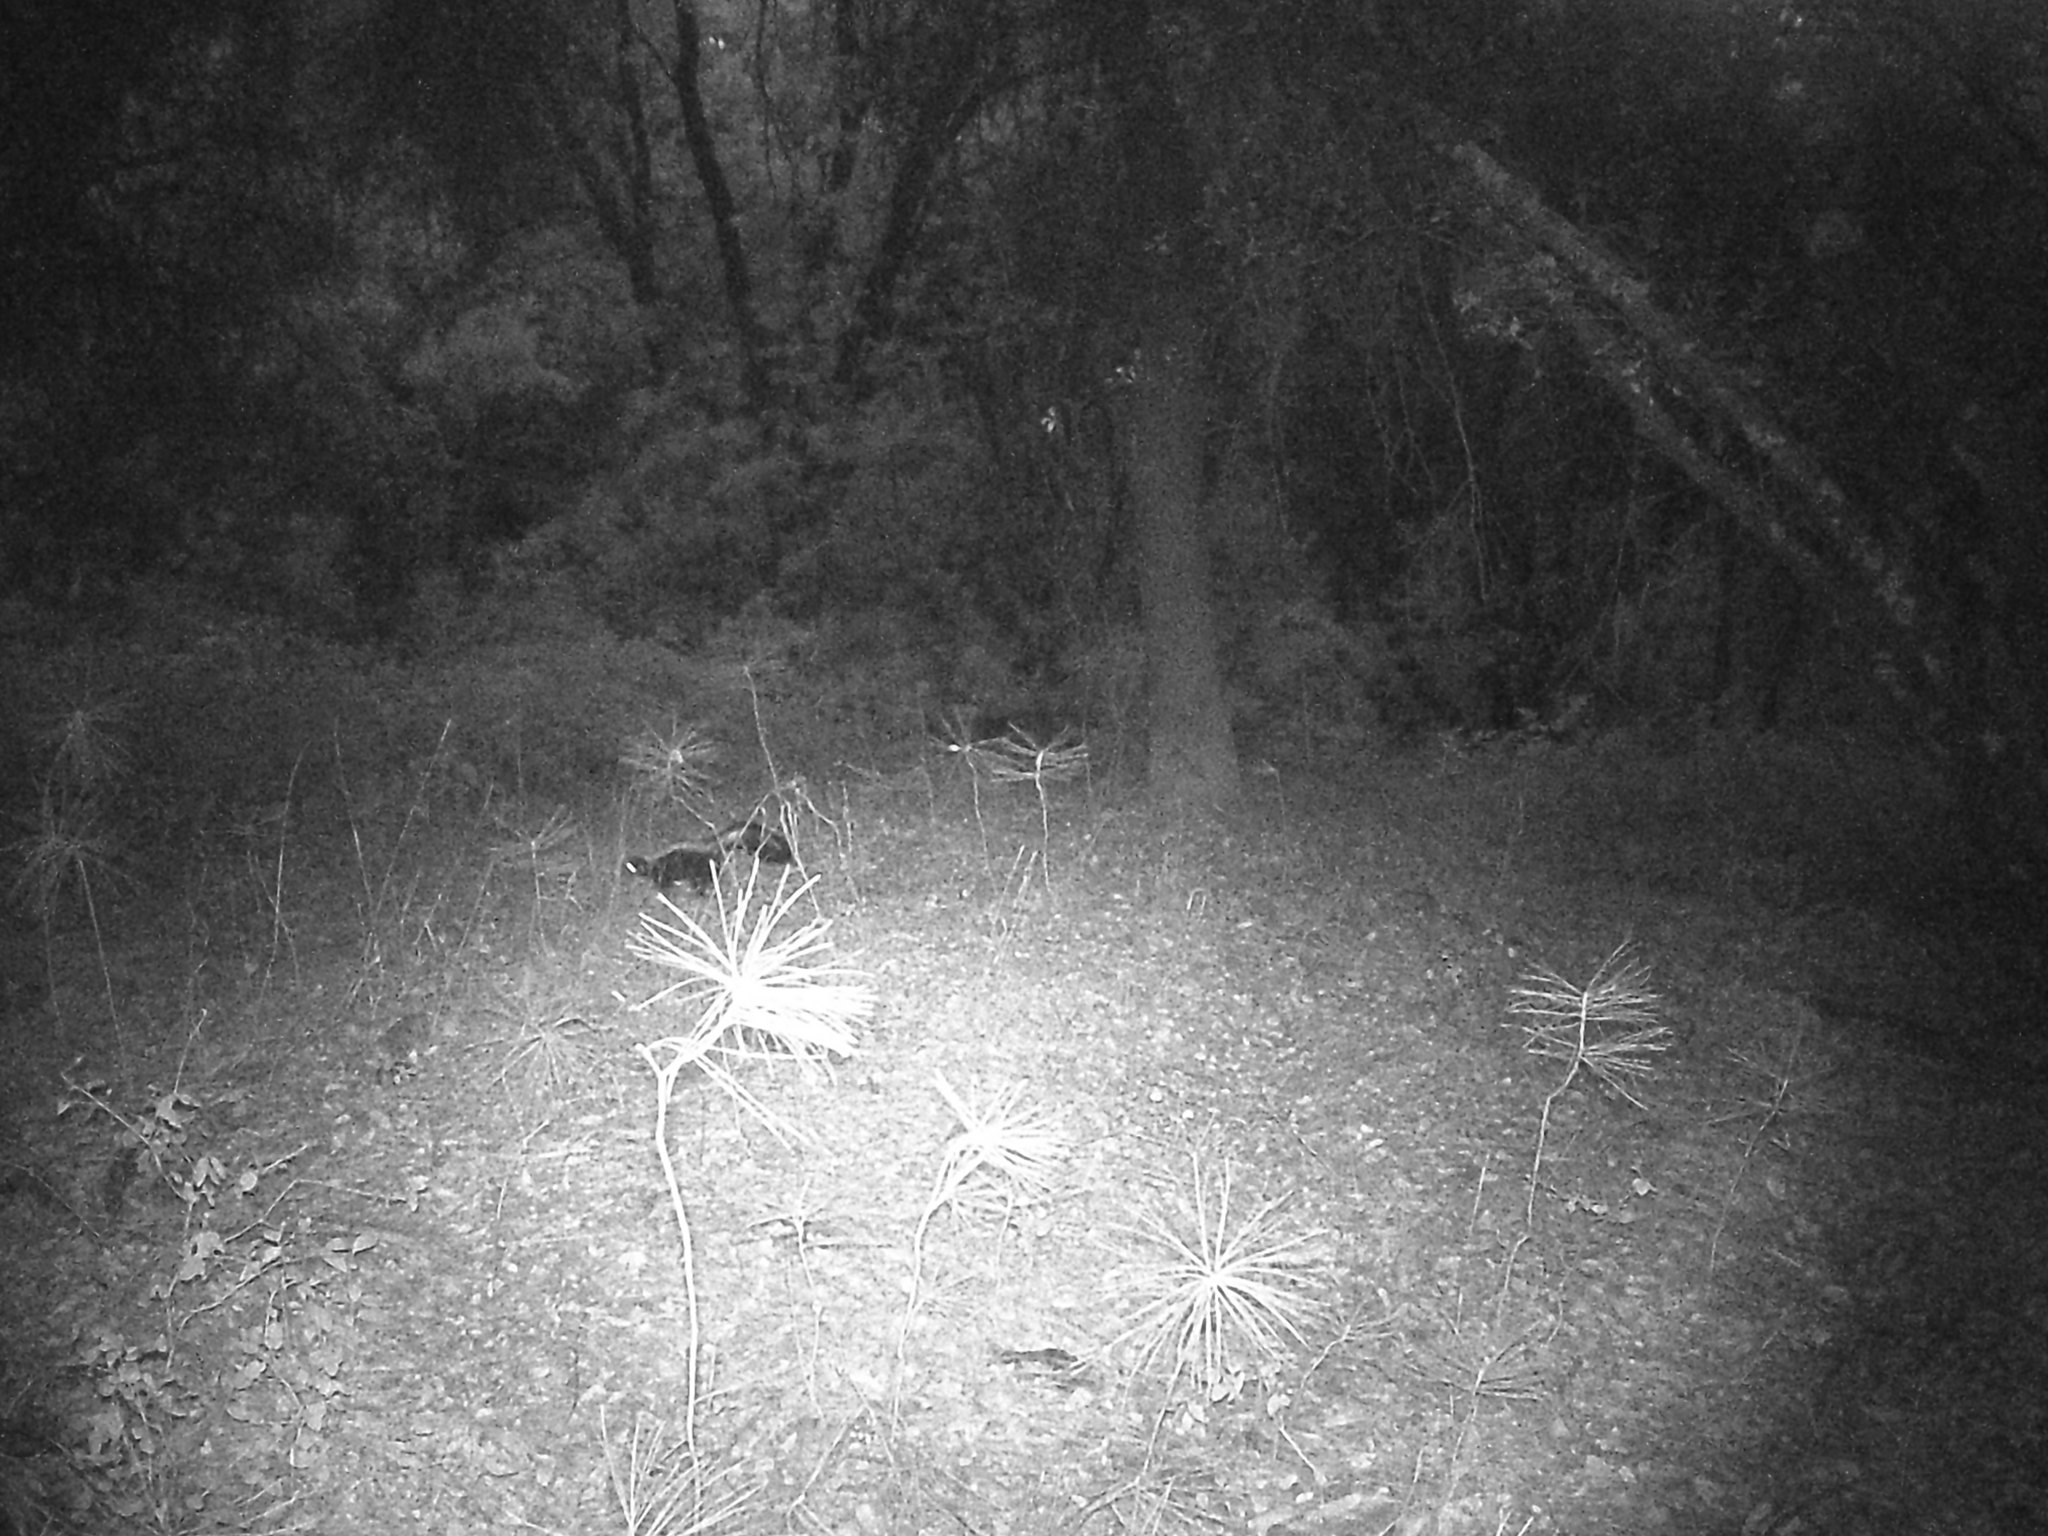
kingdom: Animalia
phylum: Chordata
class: Mammalia
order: Carnivora
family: Mephitidae
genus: Mephitis
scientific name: Mephitis mephitis
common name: Striped skunk
